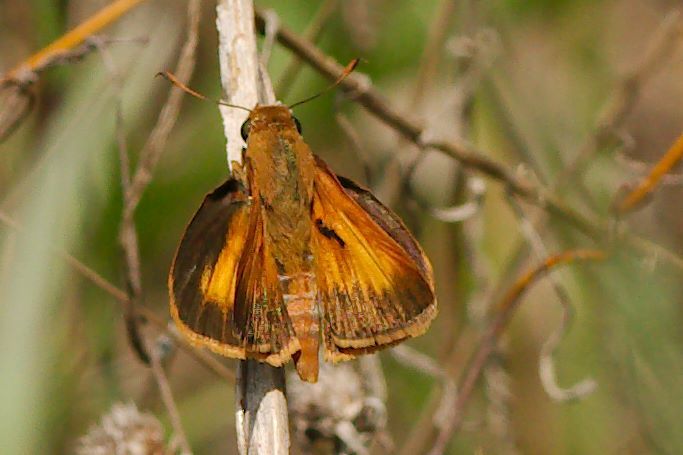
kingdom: Animalia
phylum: Arthropoda
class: Insecta
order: Lepidoptera
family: Hesperiidae
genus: Euphyes
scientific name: Euphyes pilatka
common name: Palatka skipper
